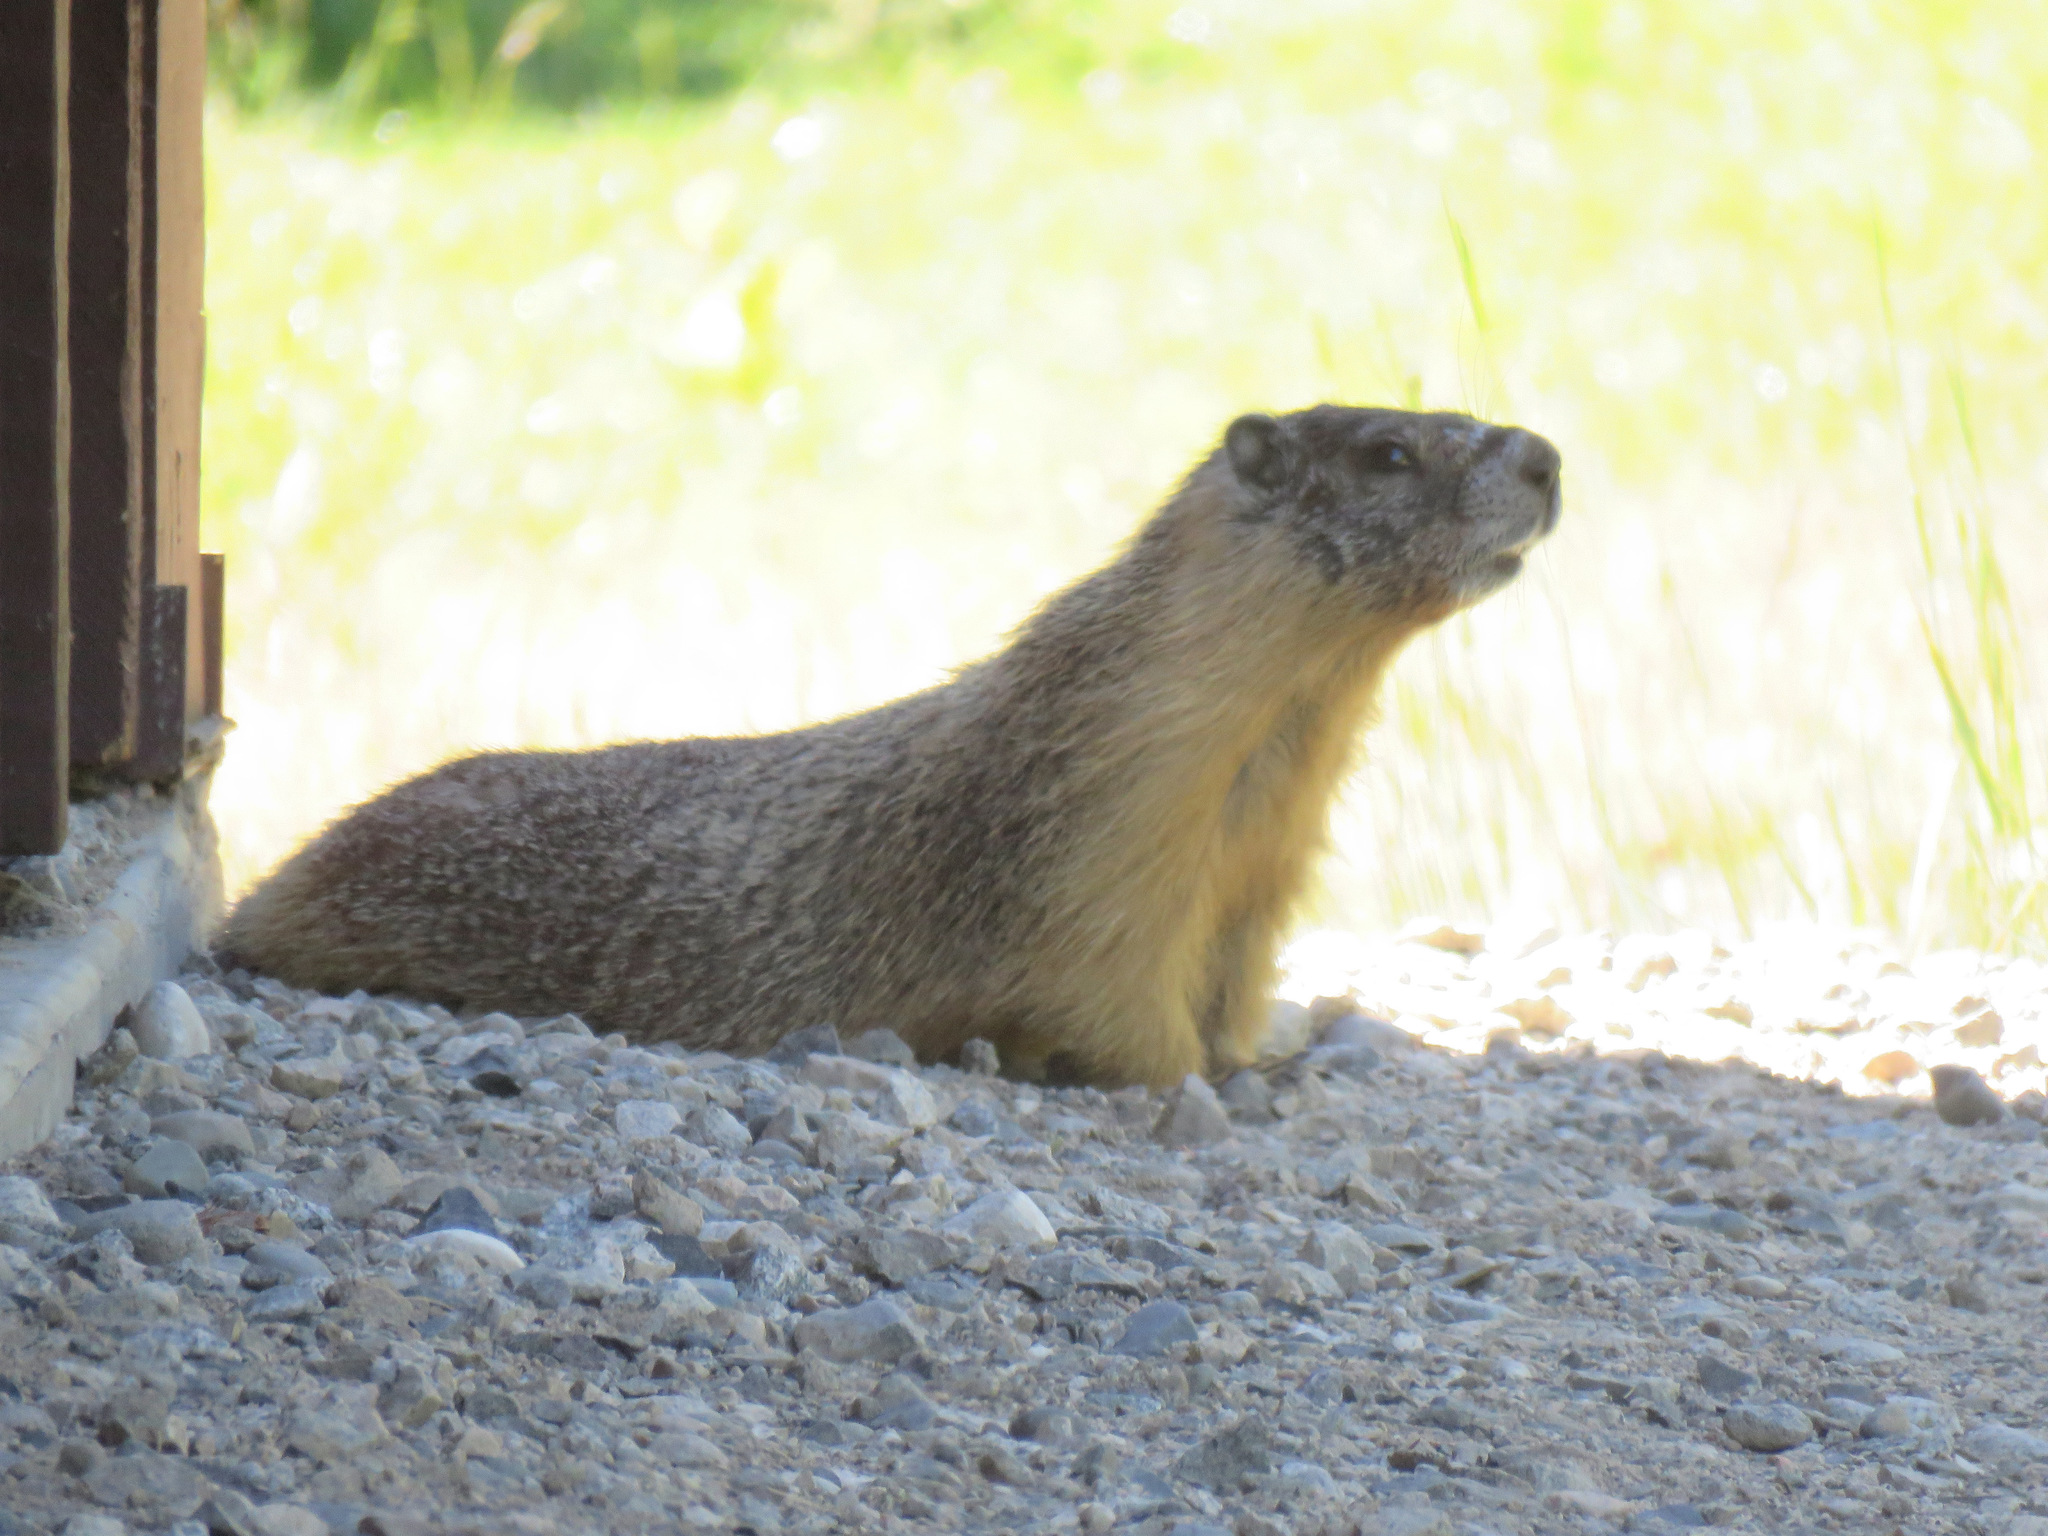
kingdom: Animalia
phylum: Chordata
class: Mammalia
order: Rodentia
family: Sciuridae
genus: Marmota
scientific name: Marmota flaviventris
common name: Yellow-bellied marmot
